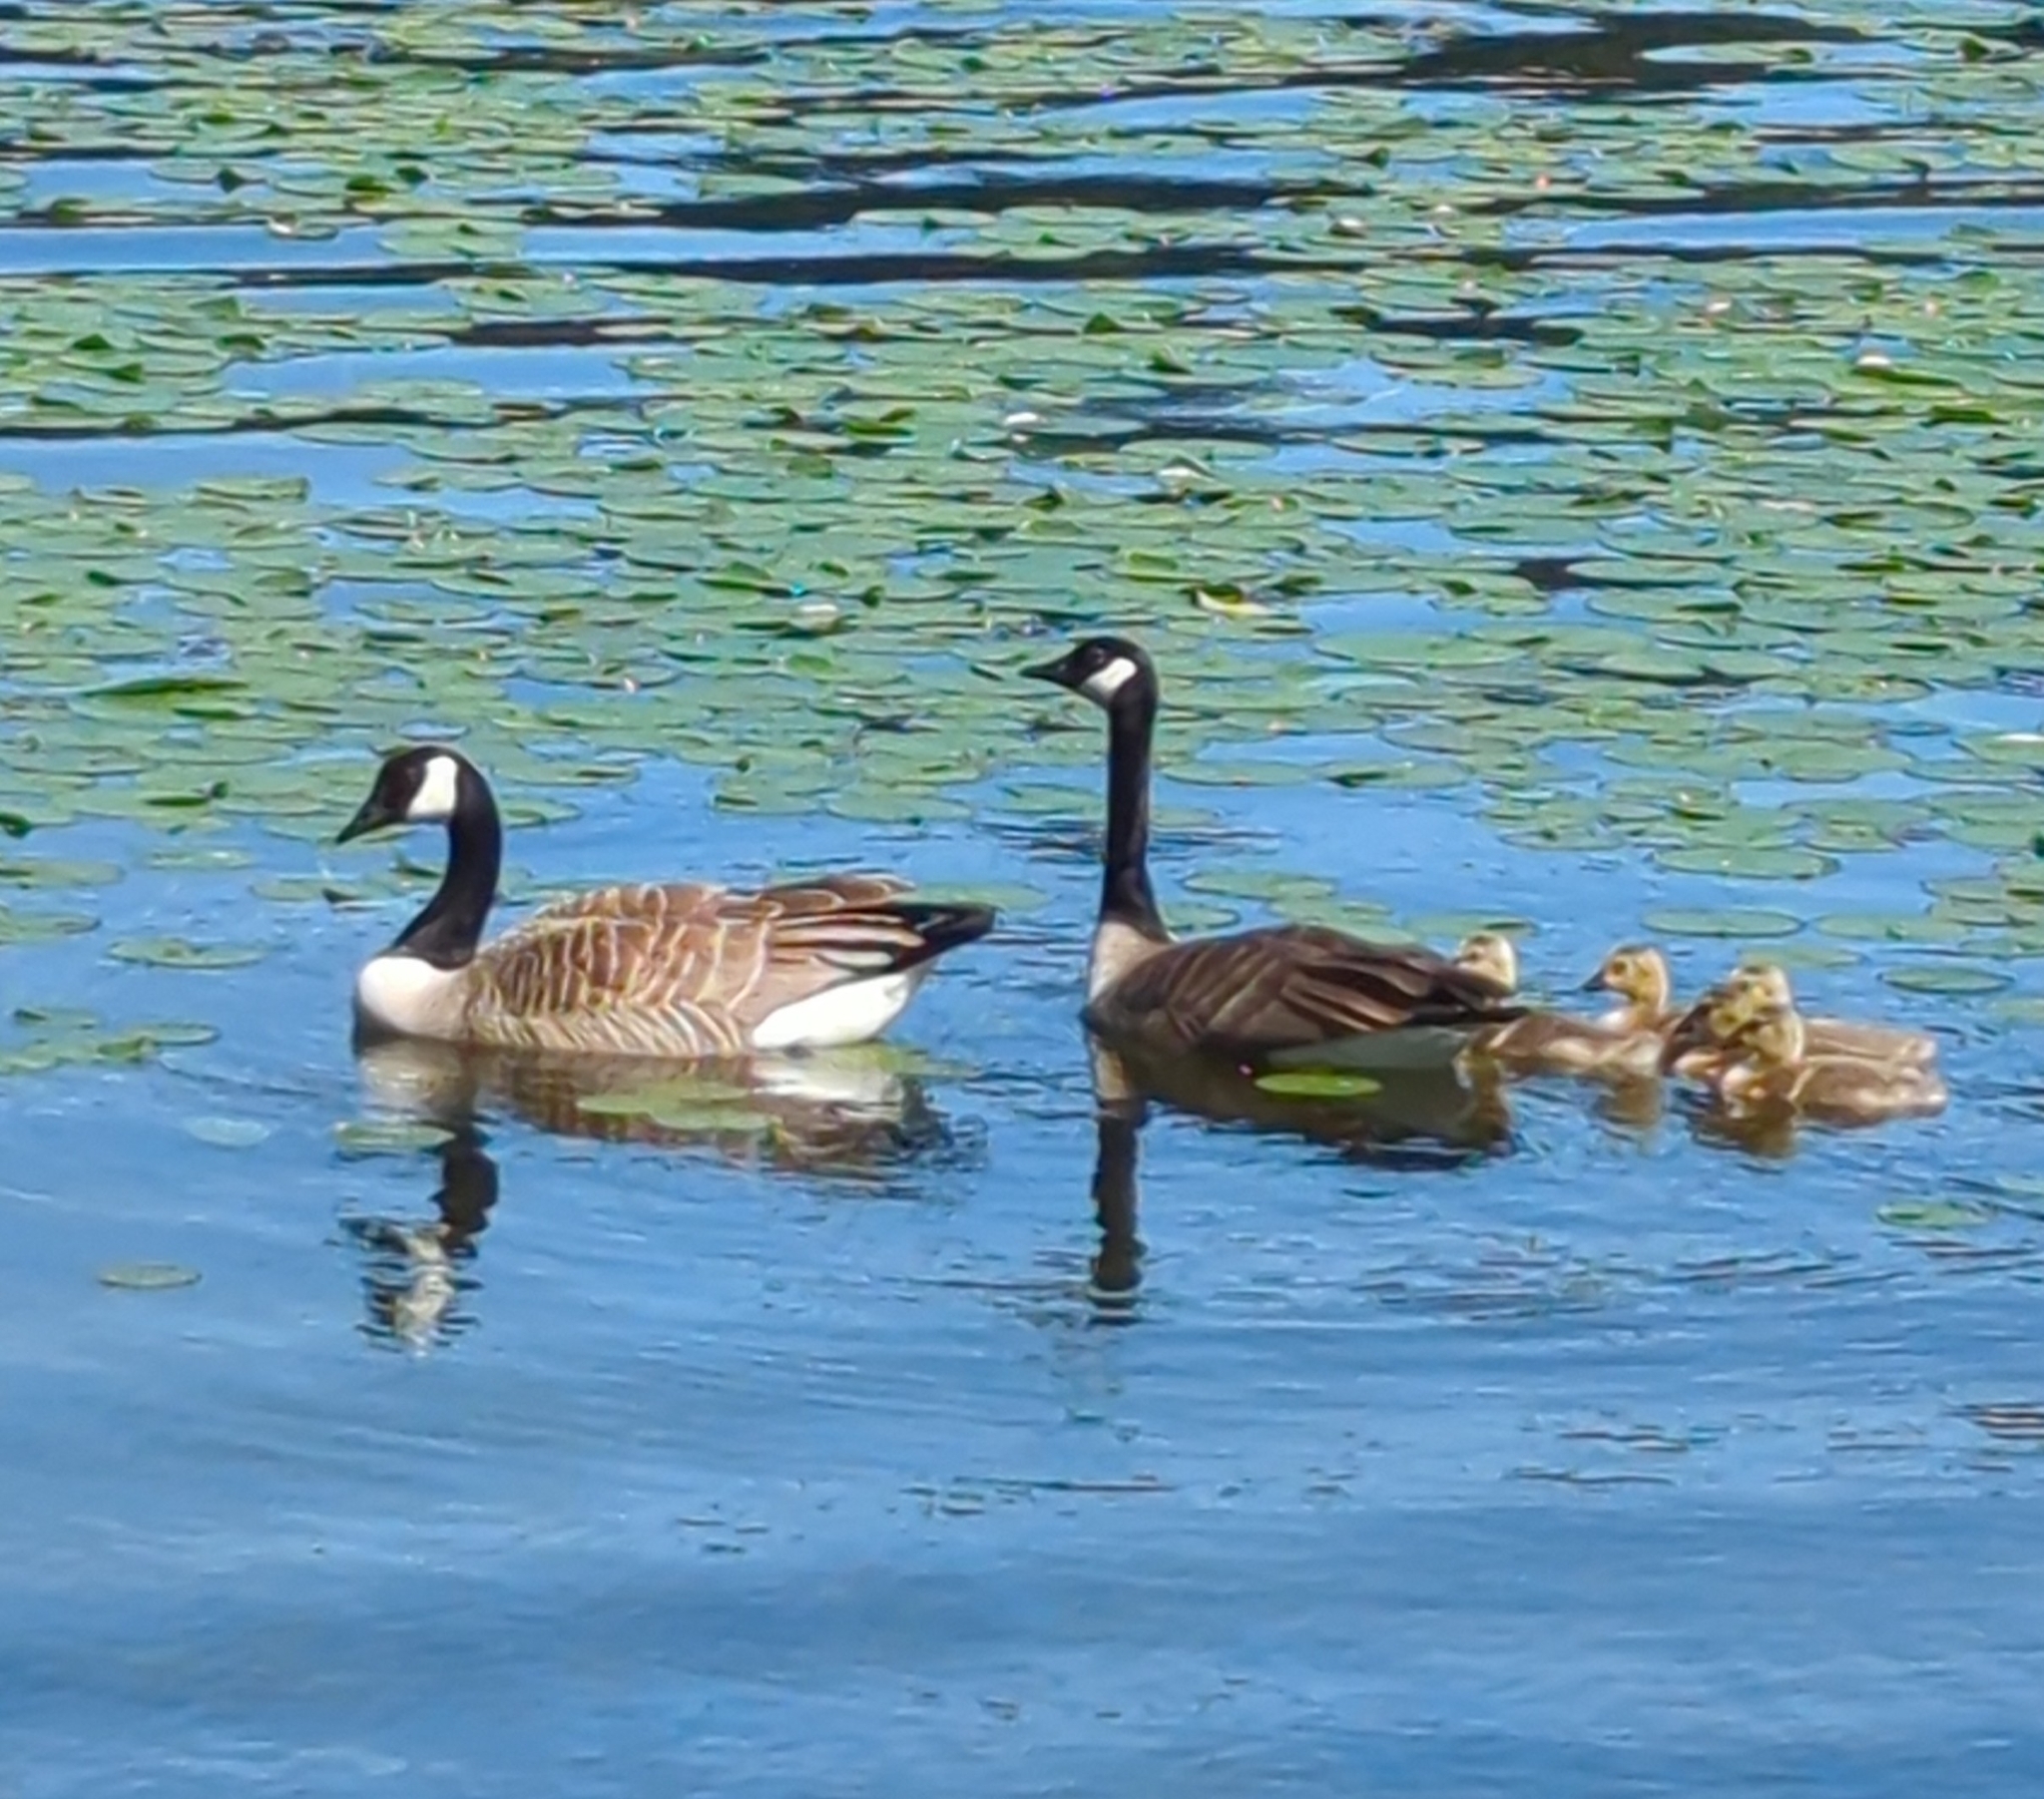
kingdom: Animalia
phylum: Chordata
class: Aves
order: Anseriformes
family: Anatidae
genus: Branta
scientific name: Branta canadensis
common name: Canada goose
